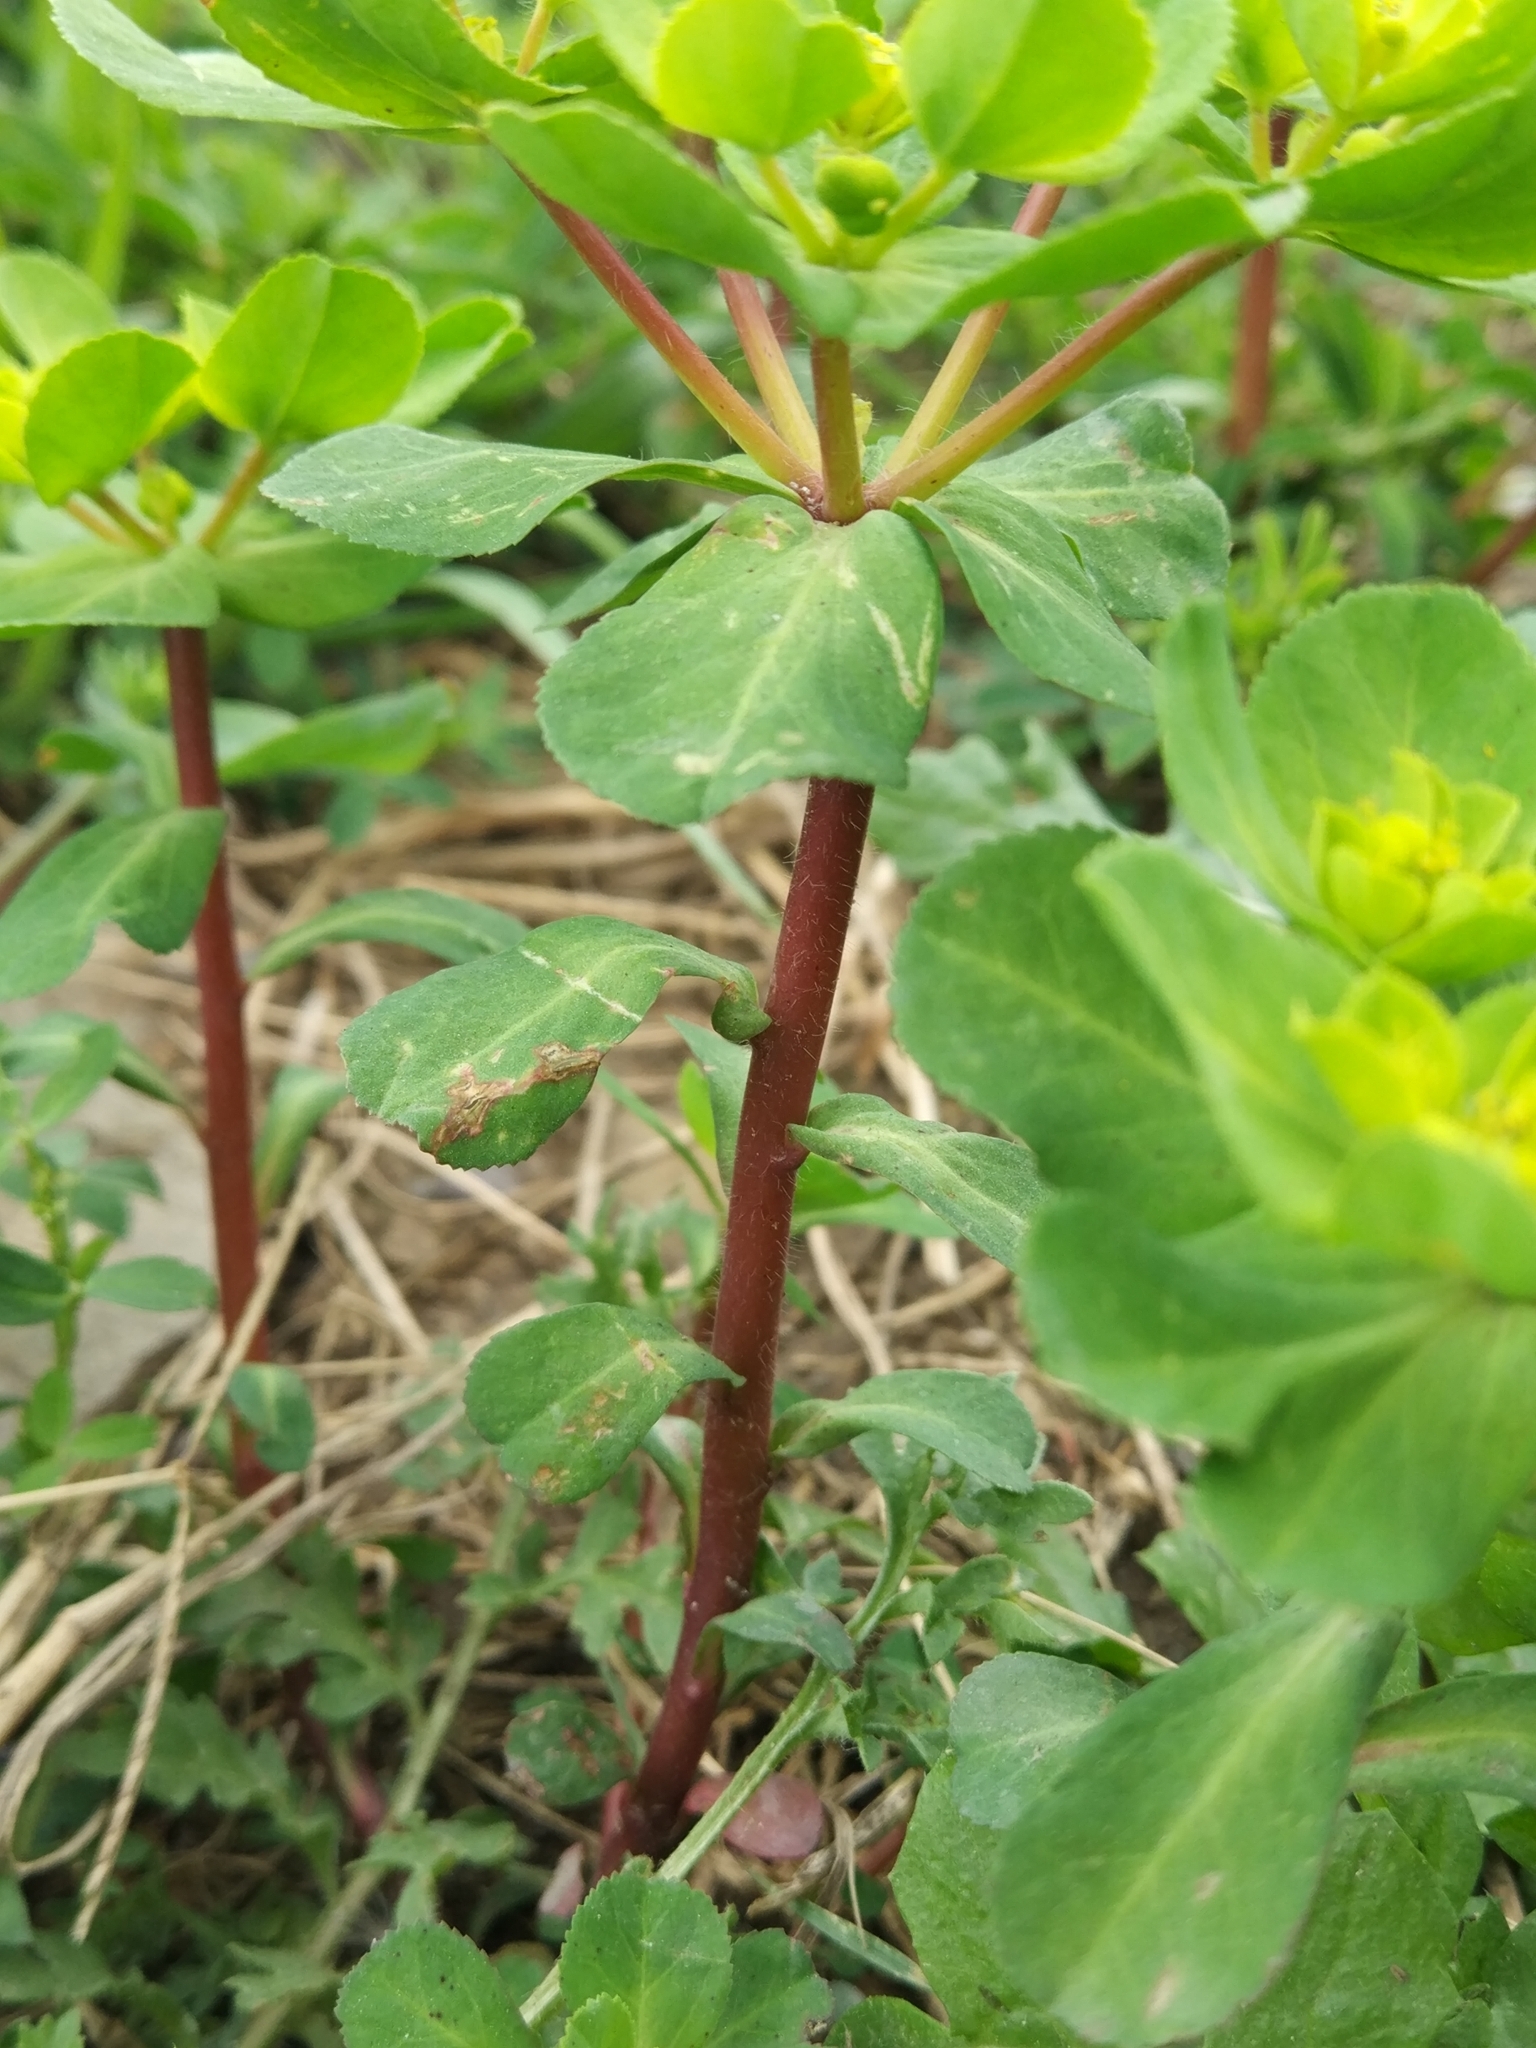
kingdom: Plantae
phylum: Tracheophyta
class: Magnoliopsida
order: Malpighiales
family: Euphorbiaceae
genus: Euphorbia
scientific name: Euphorbia helioscopia
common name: Sun spurge
